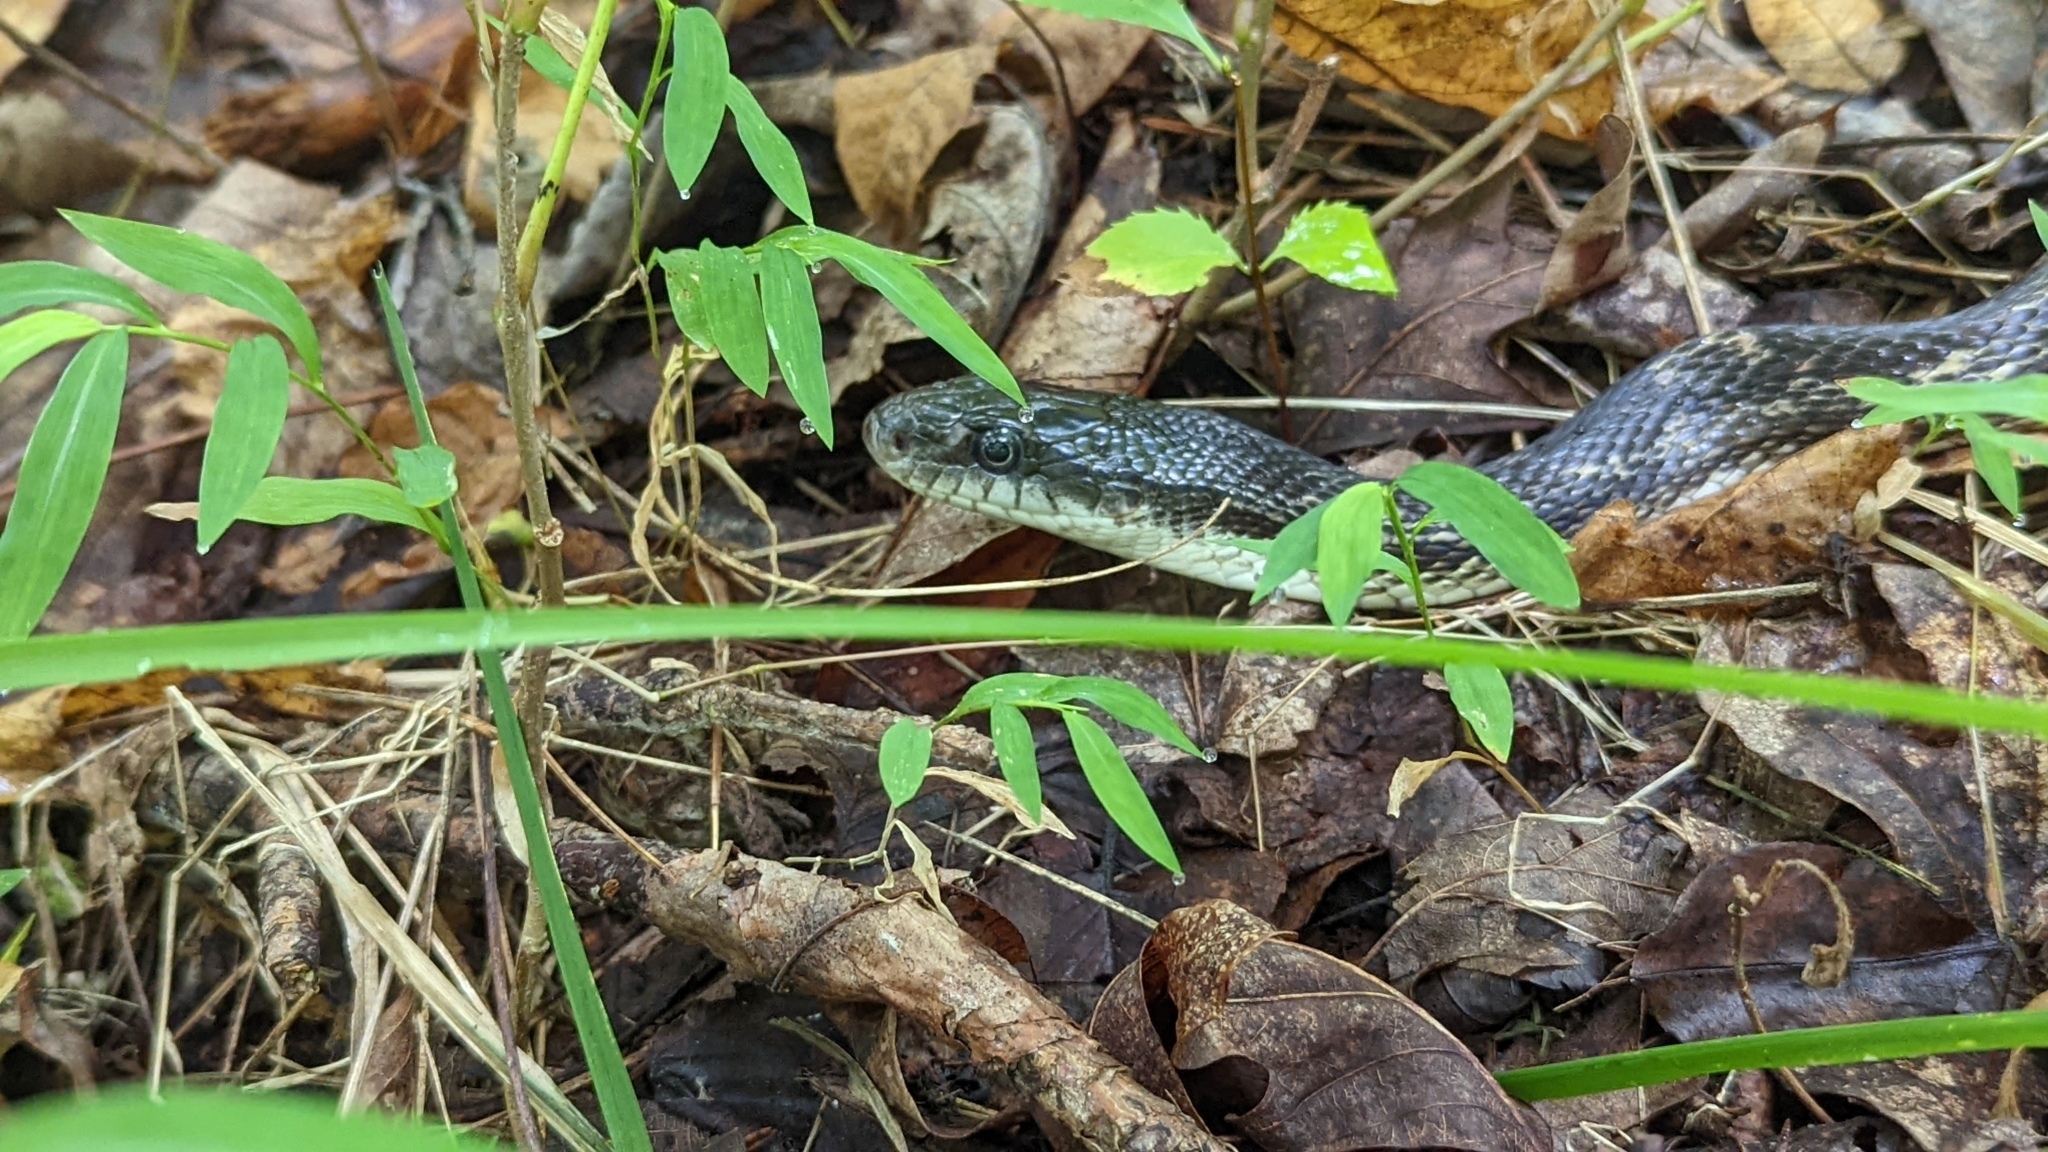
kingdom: Animalia
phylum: Chordata
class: Squamata
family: Colubridae
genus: Pantherophis
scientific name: Pantherophis spiloides
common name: Gray rat snake
